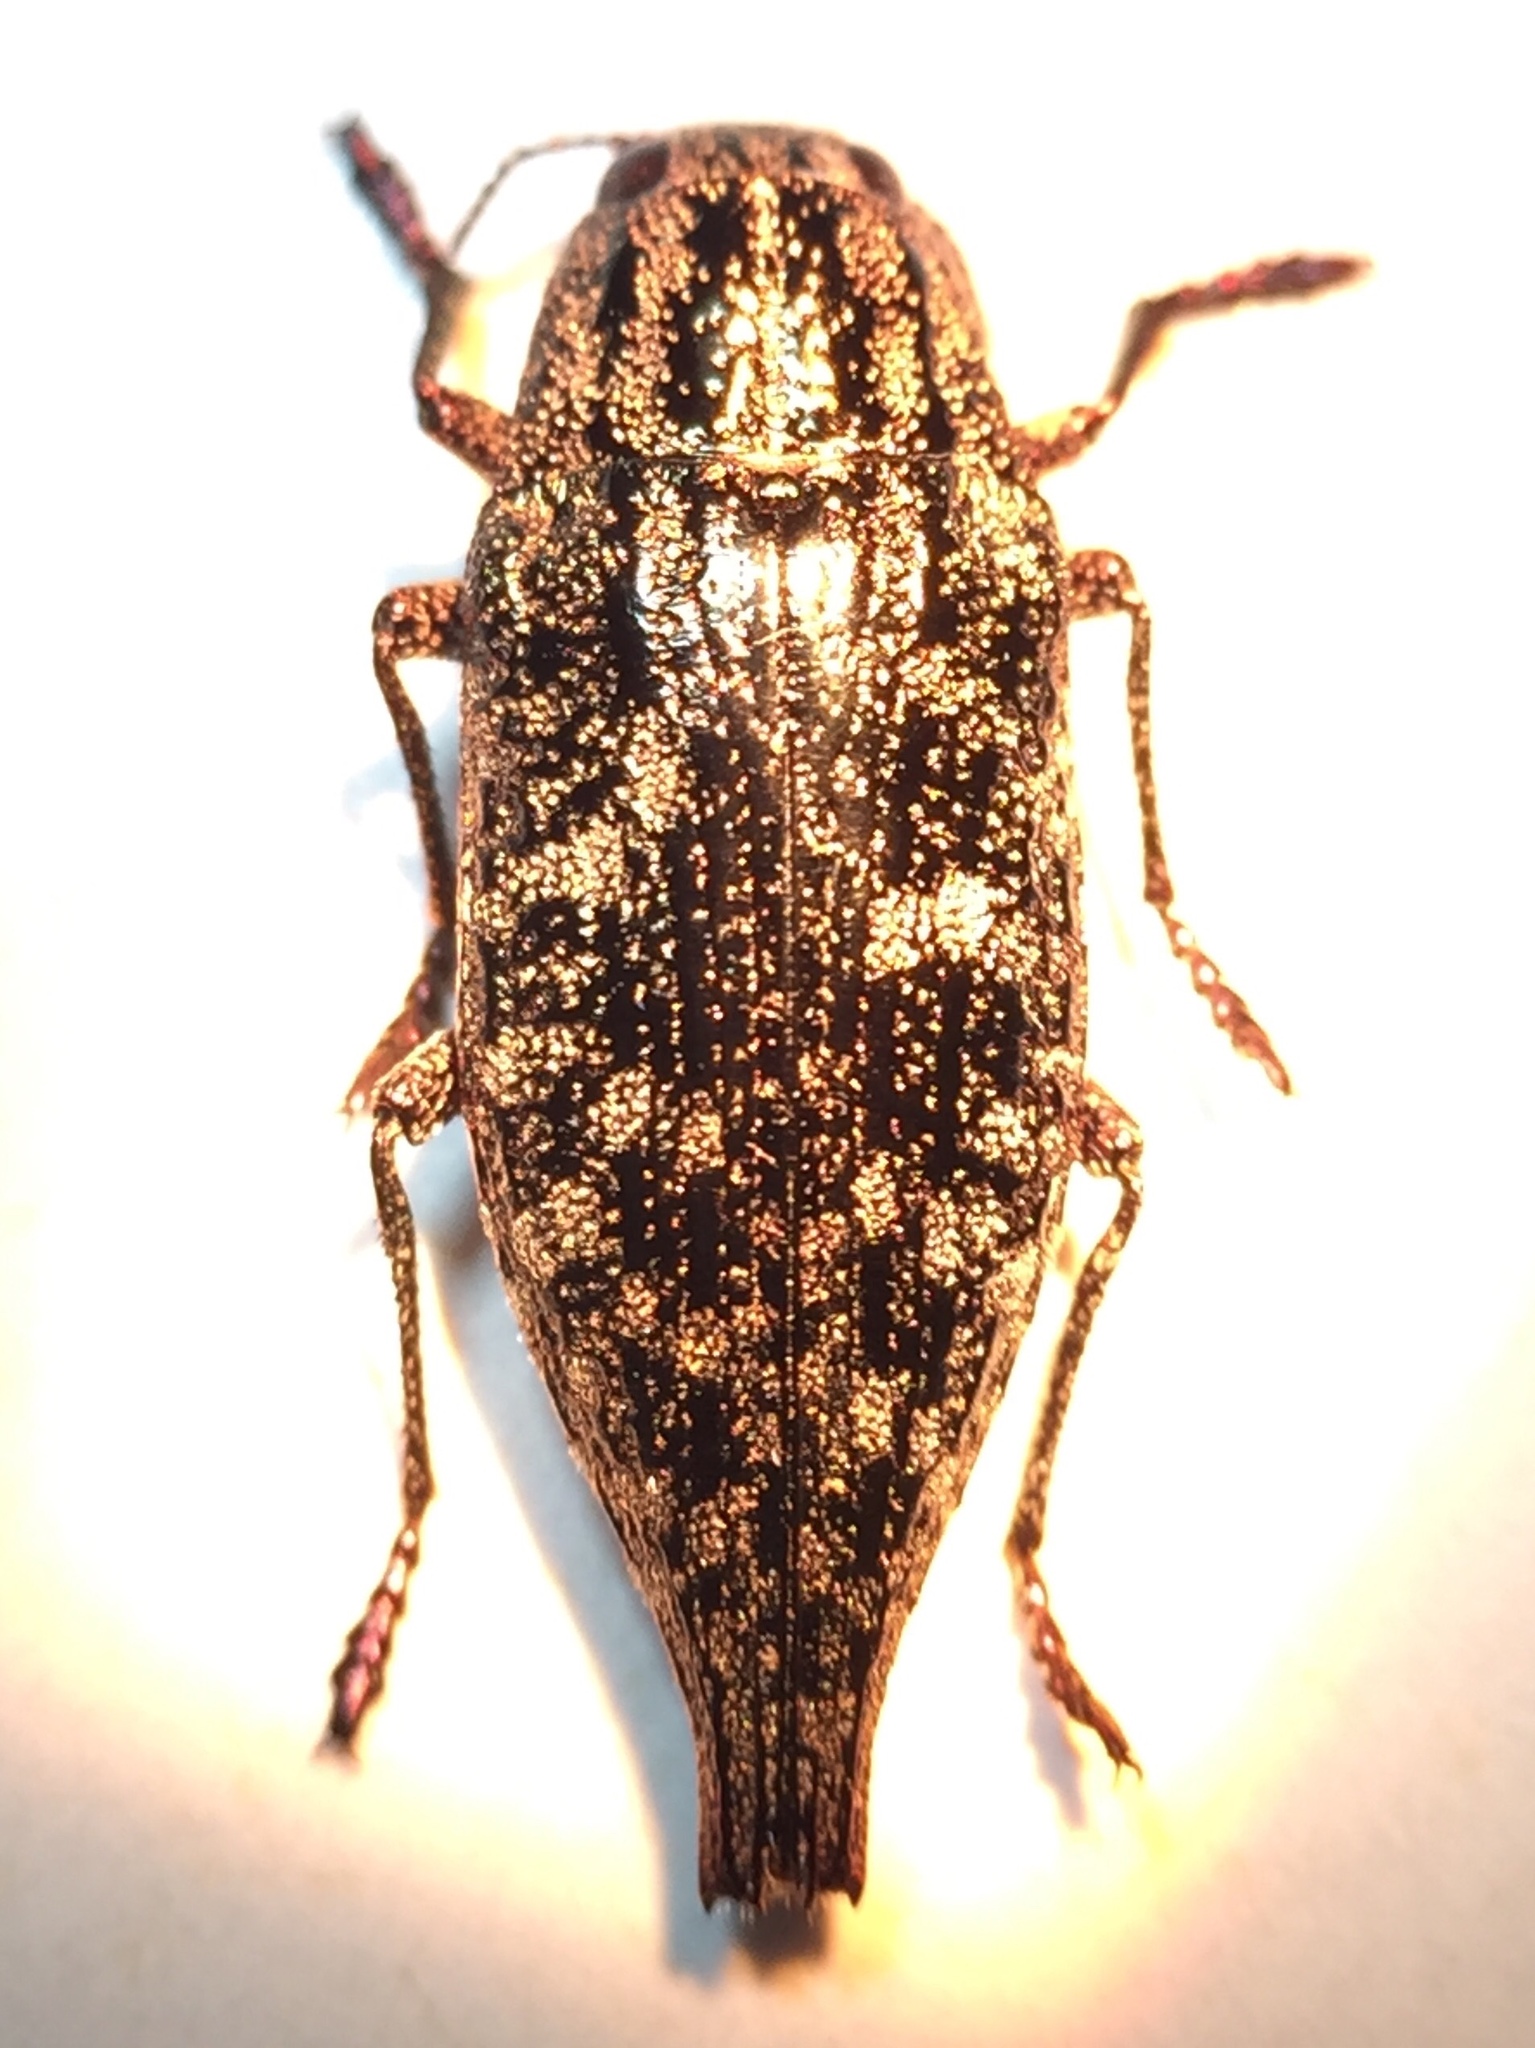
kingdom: Animalia
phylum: Arthropoda
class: Insecta
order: Coleoptera
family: Buprestidae
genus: Dicerca
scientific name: Dicerca pugionata
